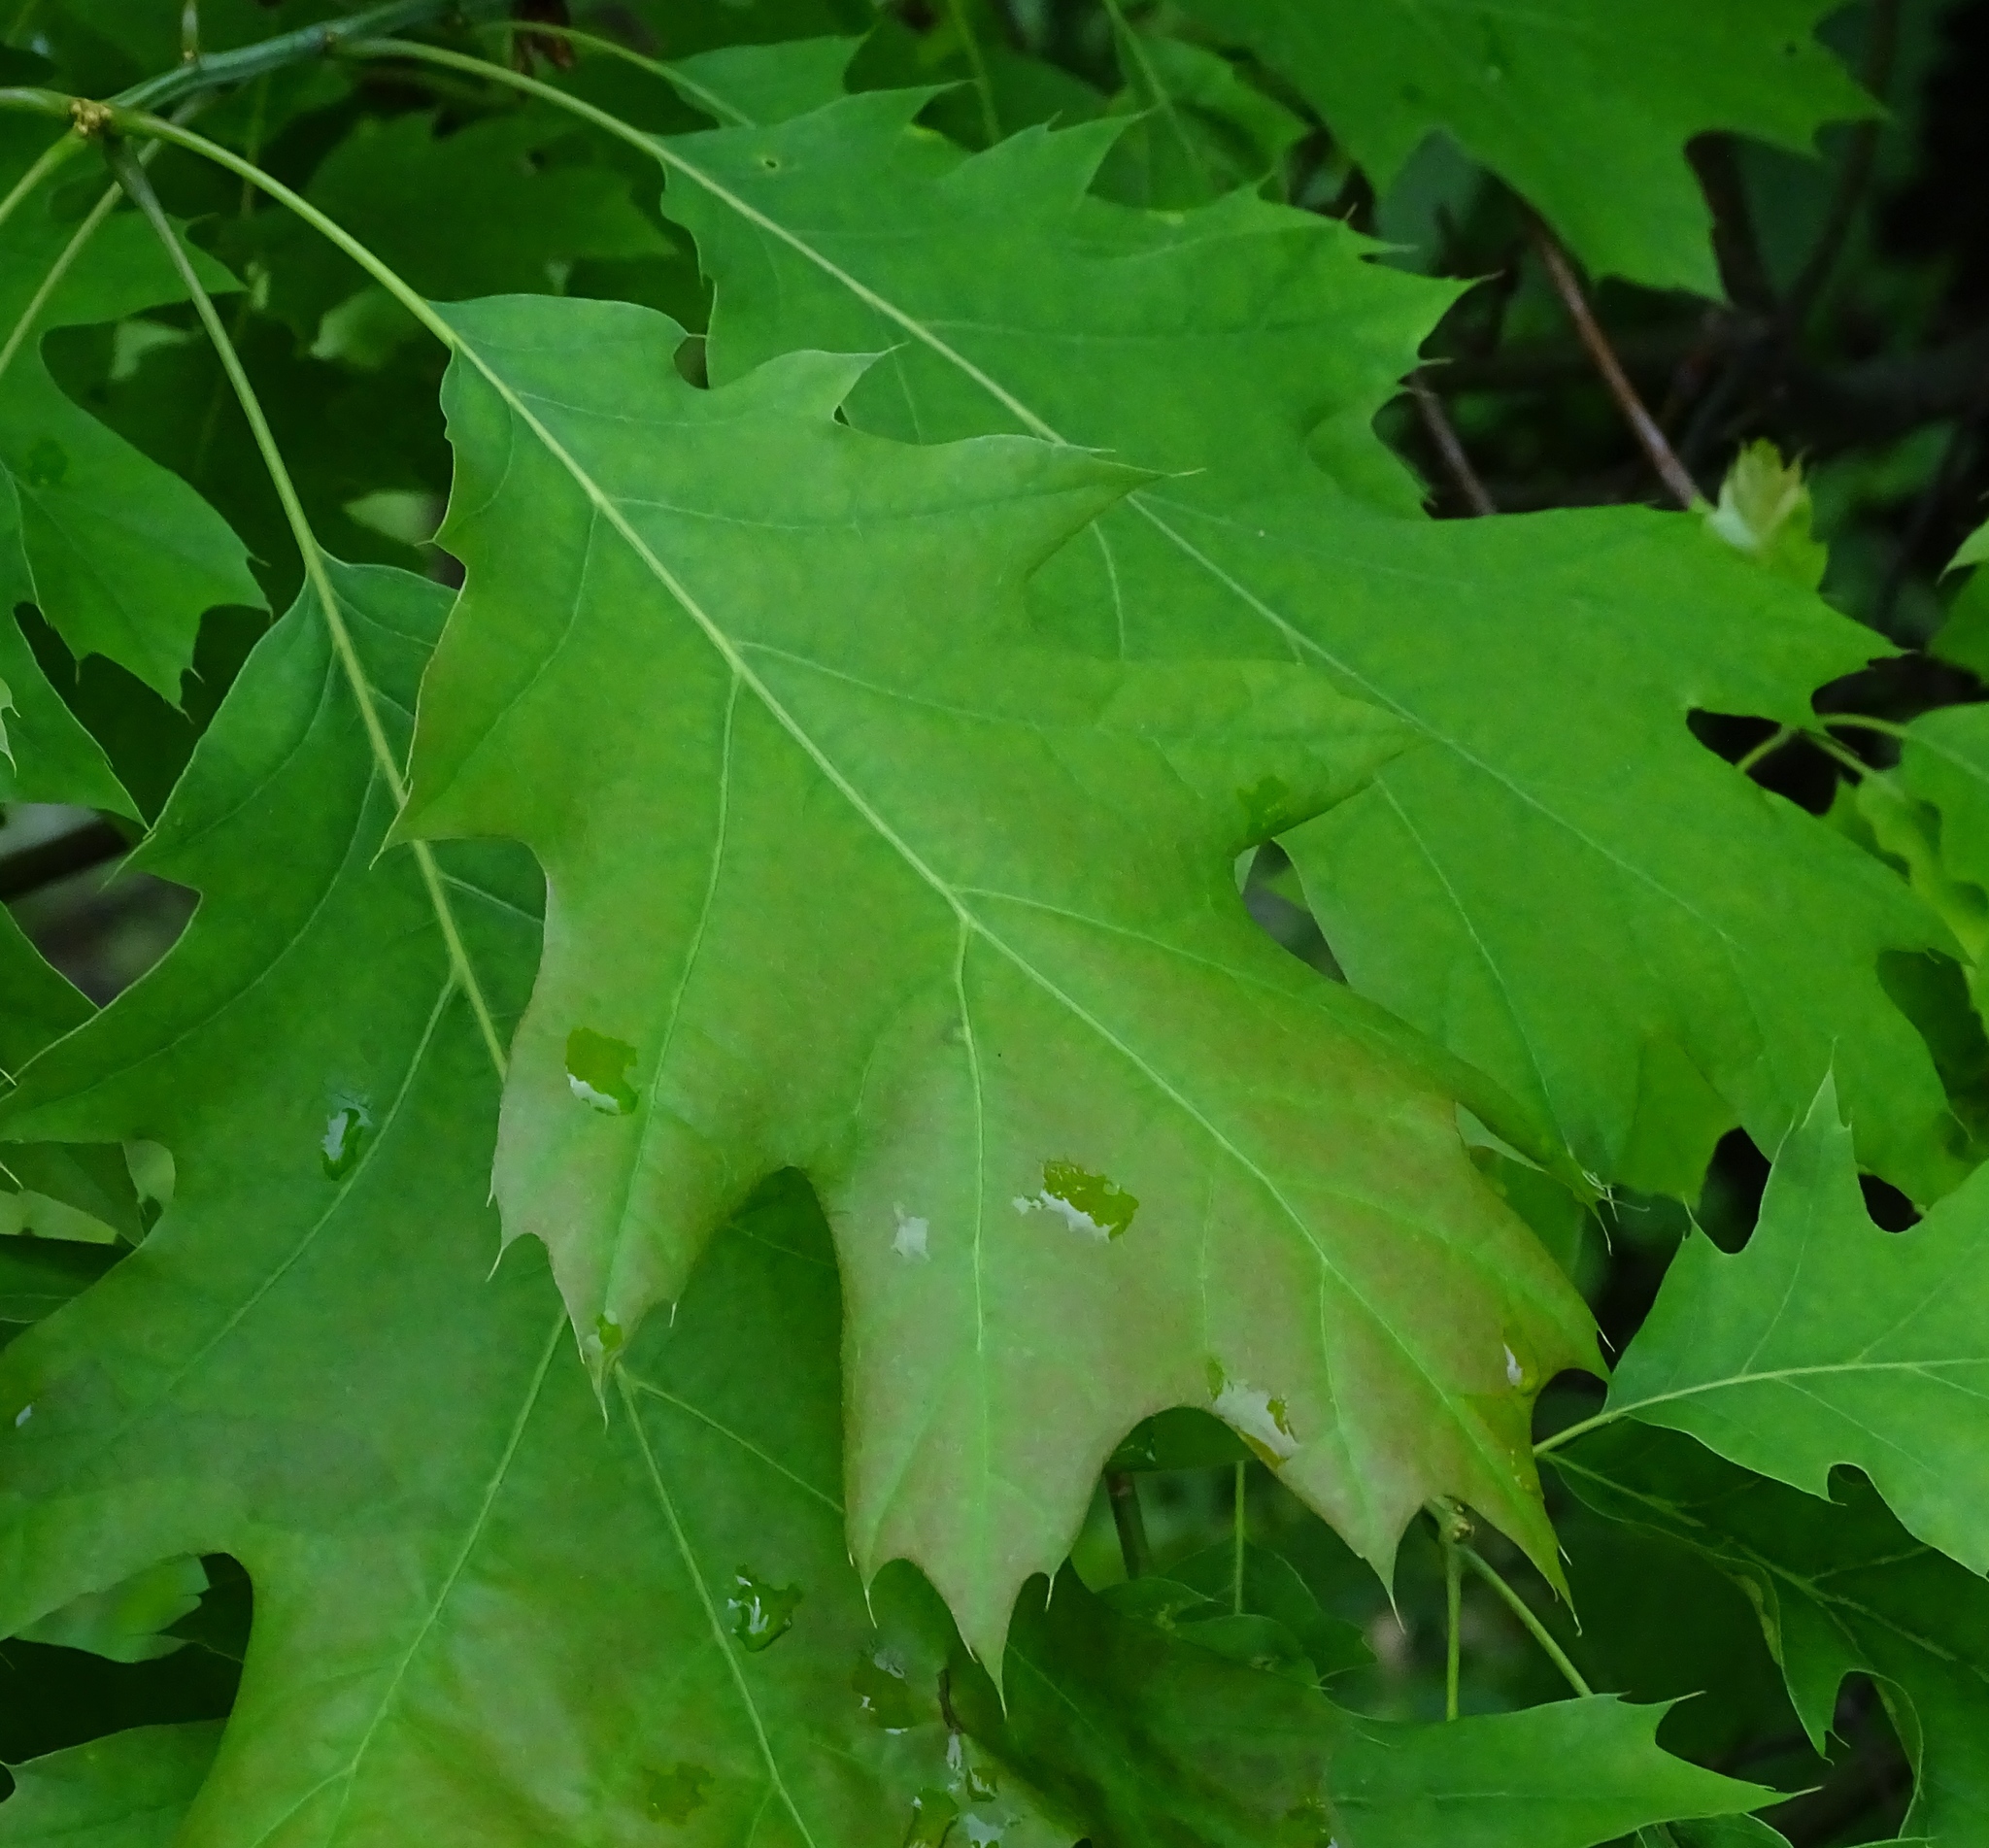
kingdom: Plantae
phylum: Tracheophyta
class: Magnoliopsida
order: Fagales
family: Fagaceae
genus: Quercus
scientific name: Quercus rubra
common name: Red oak
